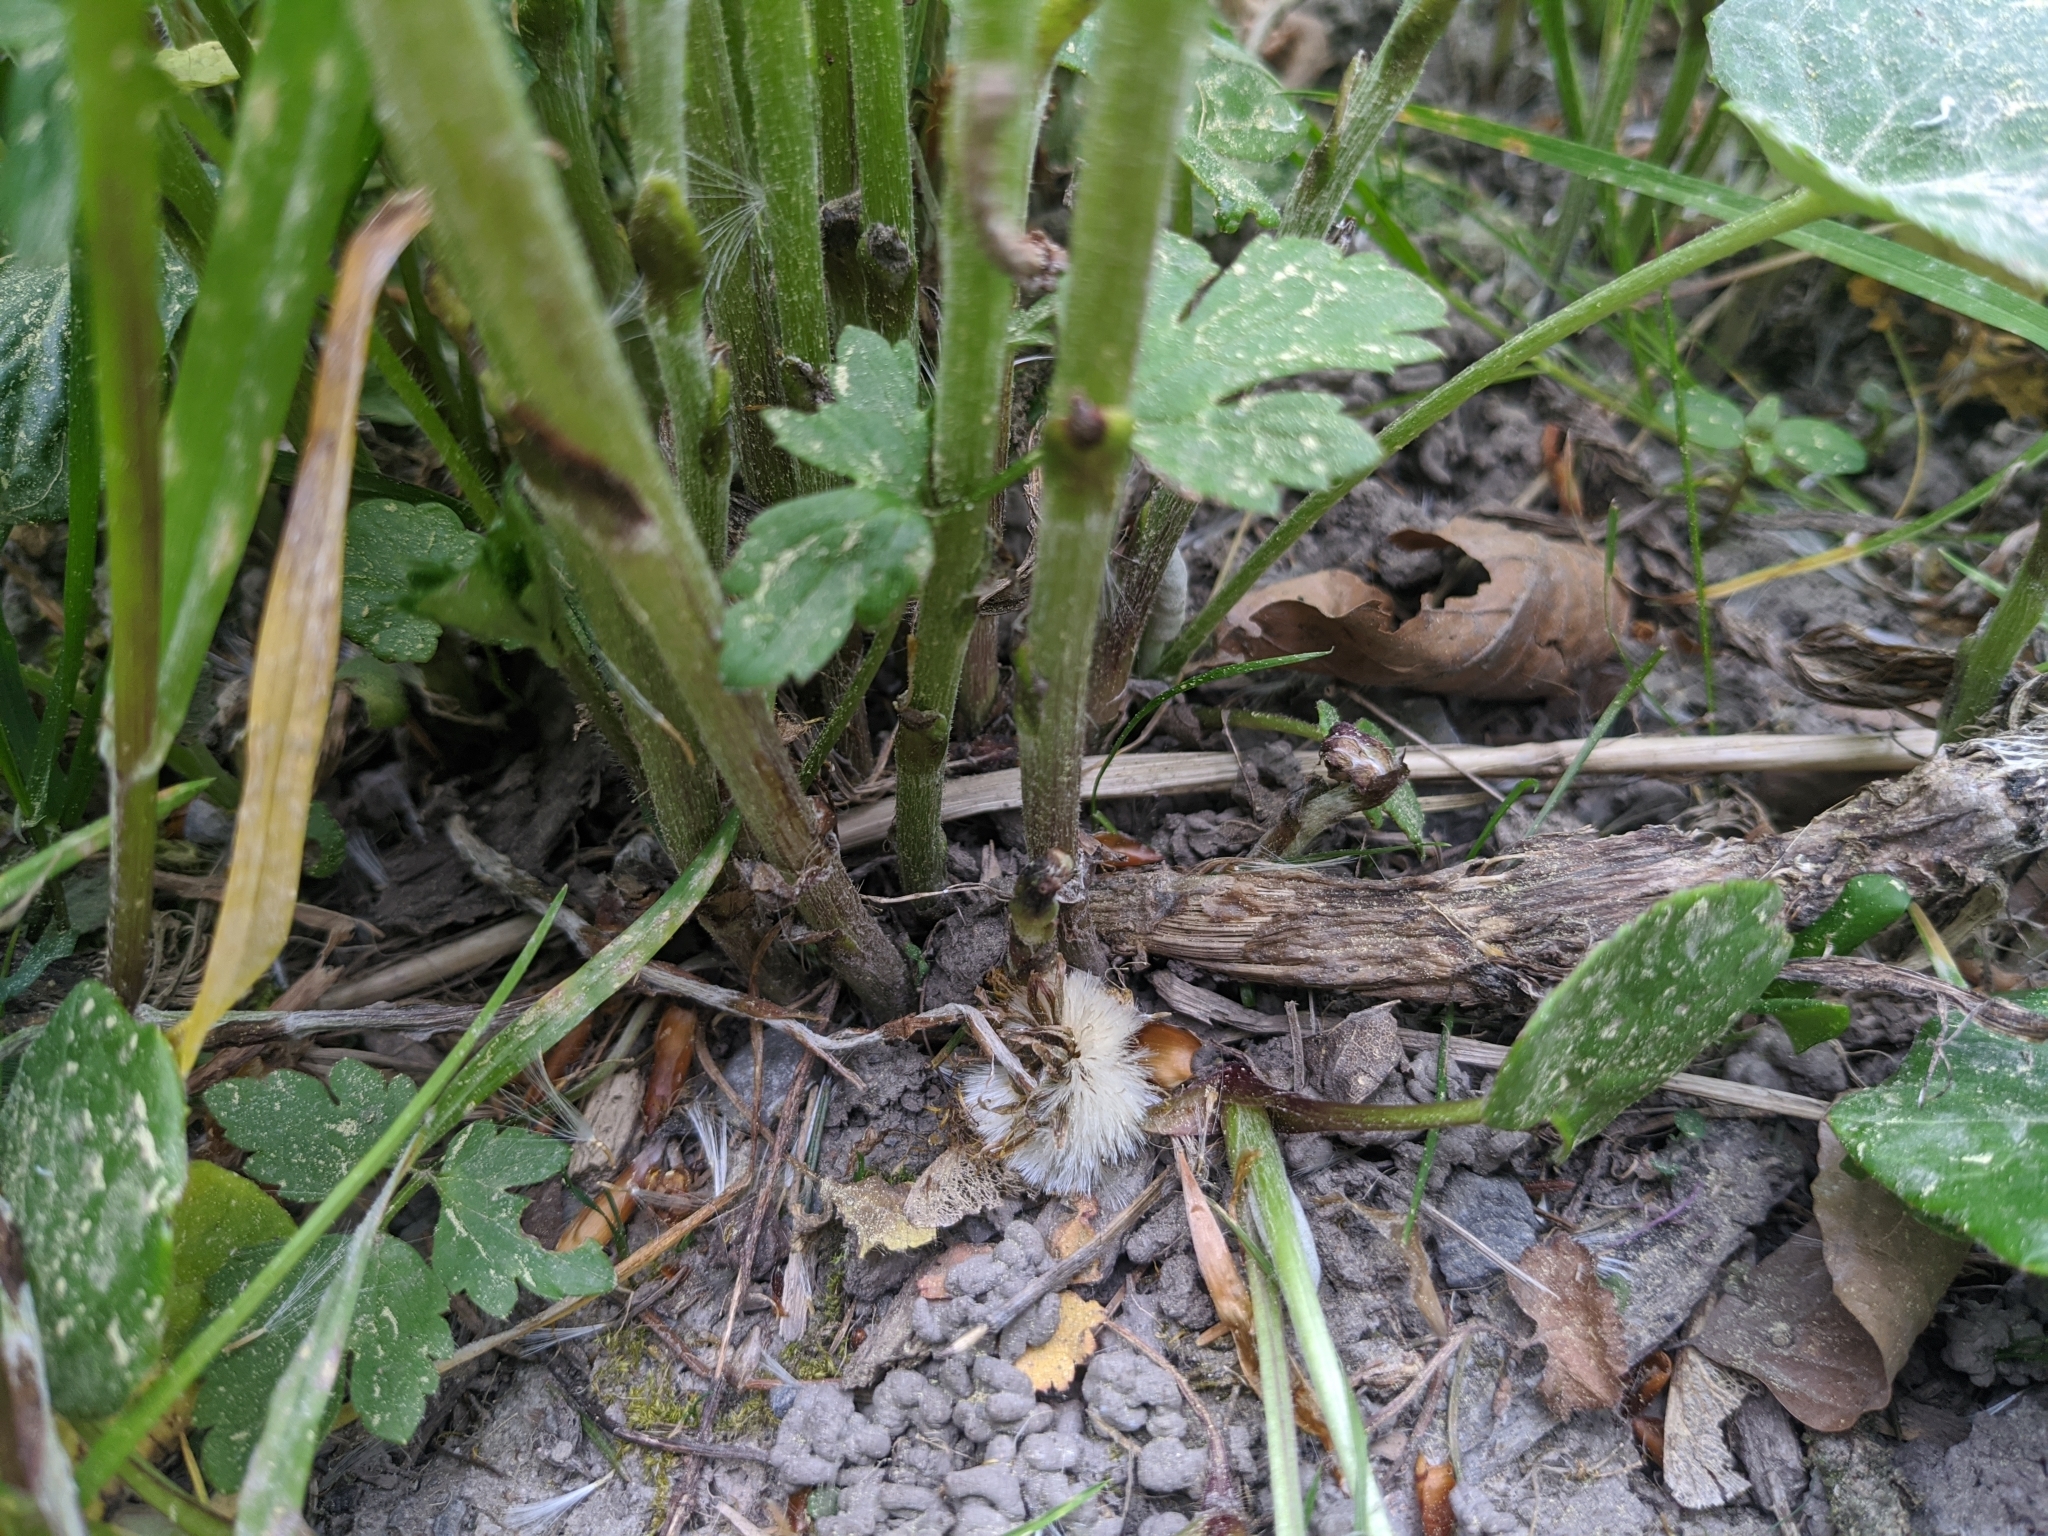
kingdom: Plantae
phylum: Tracheophyta
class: Magnoliopsida
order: Asterales
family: Asteraceae
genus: Tussilago
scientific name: Tussilago farfara
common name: Coltsfoot
